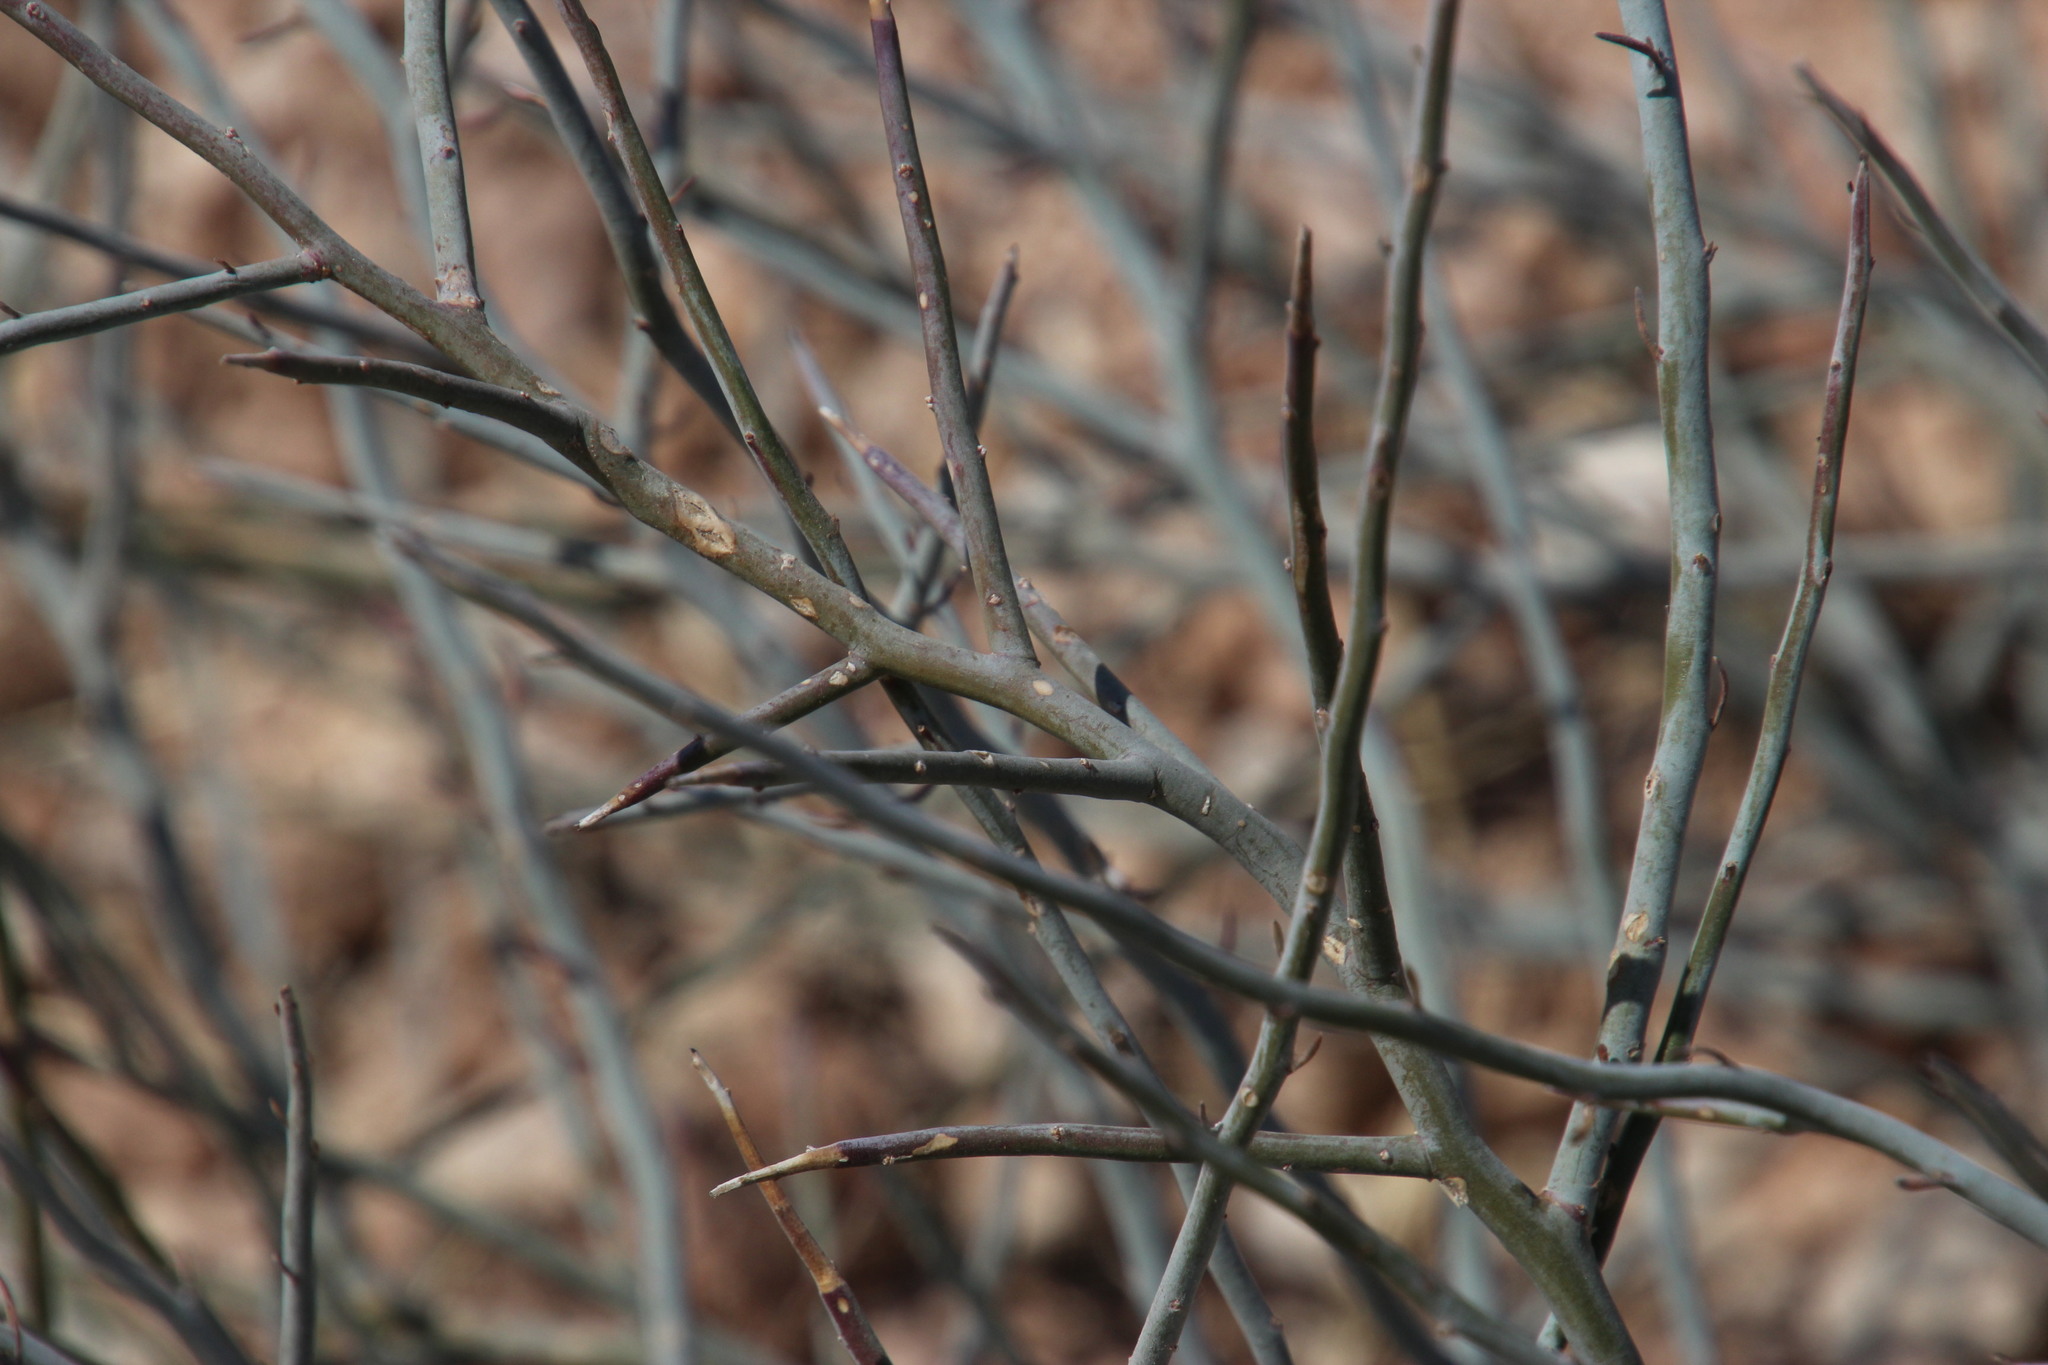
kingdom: Plantae
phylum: Tracheophyta
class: Magnoliopsida
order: Caryophyllales
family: Amaranthaceae
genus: Calicorema
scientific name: Calicorema capitata
